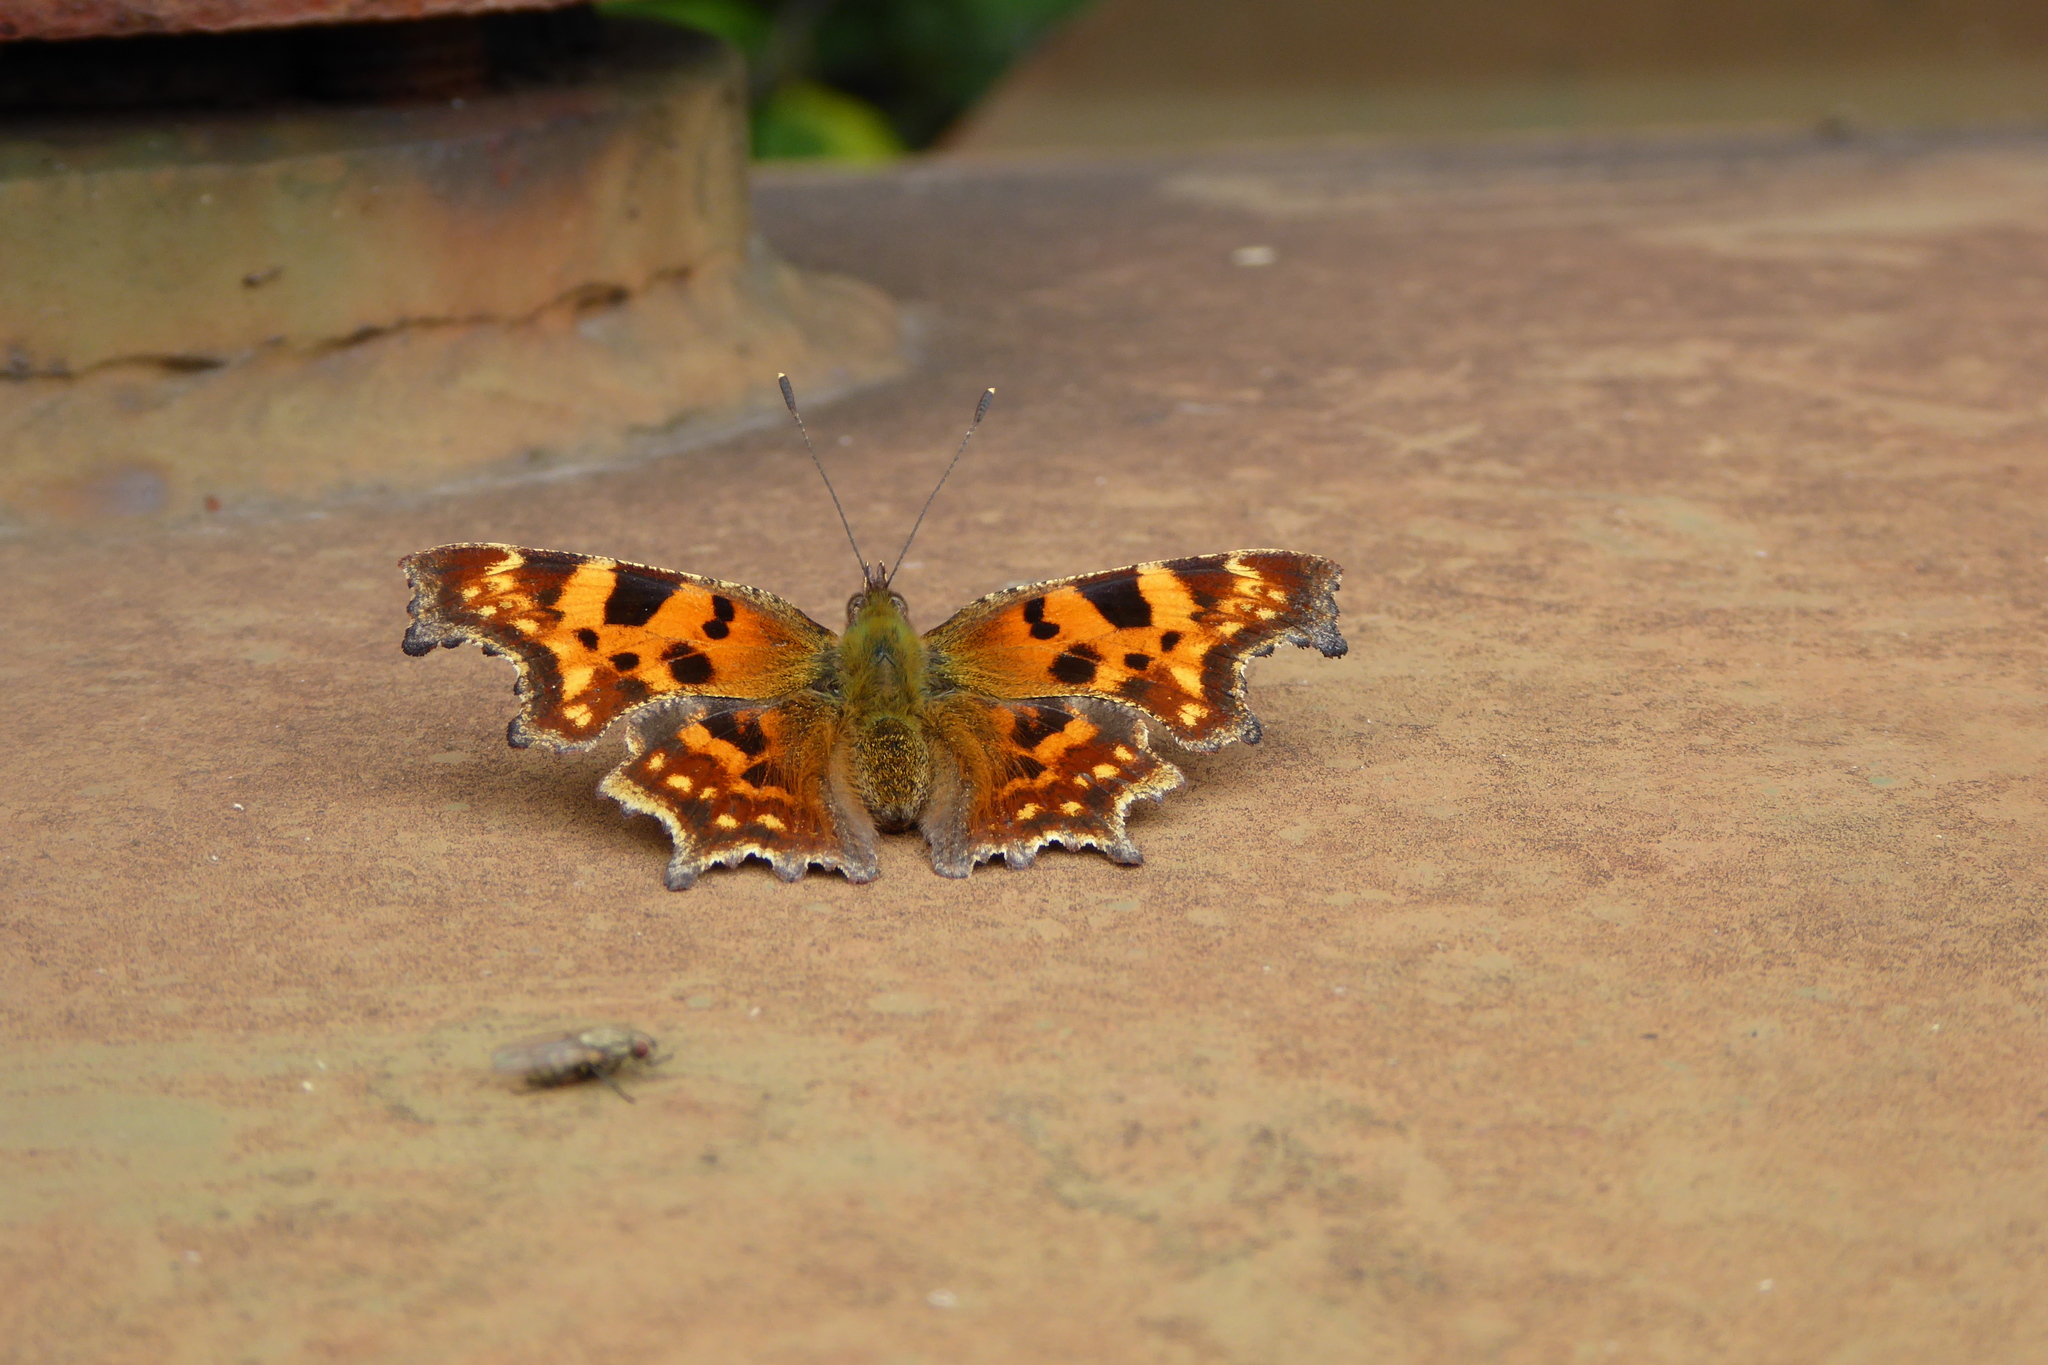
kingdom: Animalia
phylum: Arthropoda
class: Insecta
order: Lepidoptera
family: Nymphalidae
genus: Polygonia
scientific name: Polygonia c-album
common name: Comma
